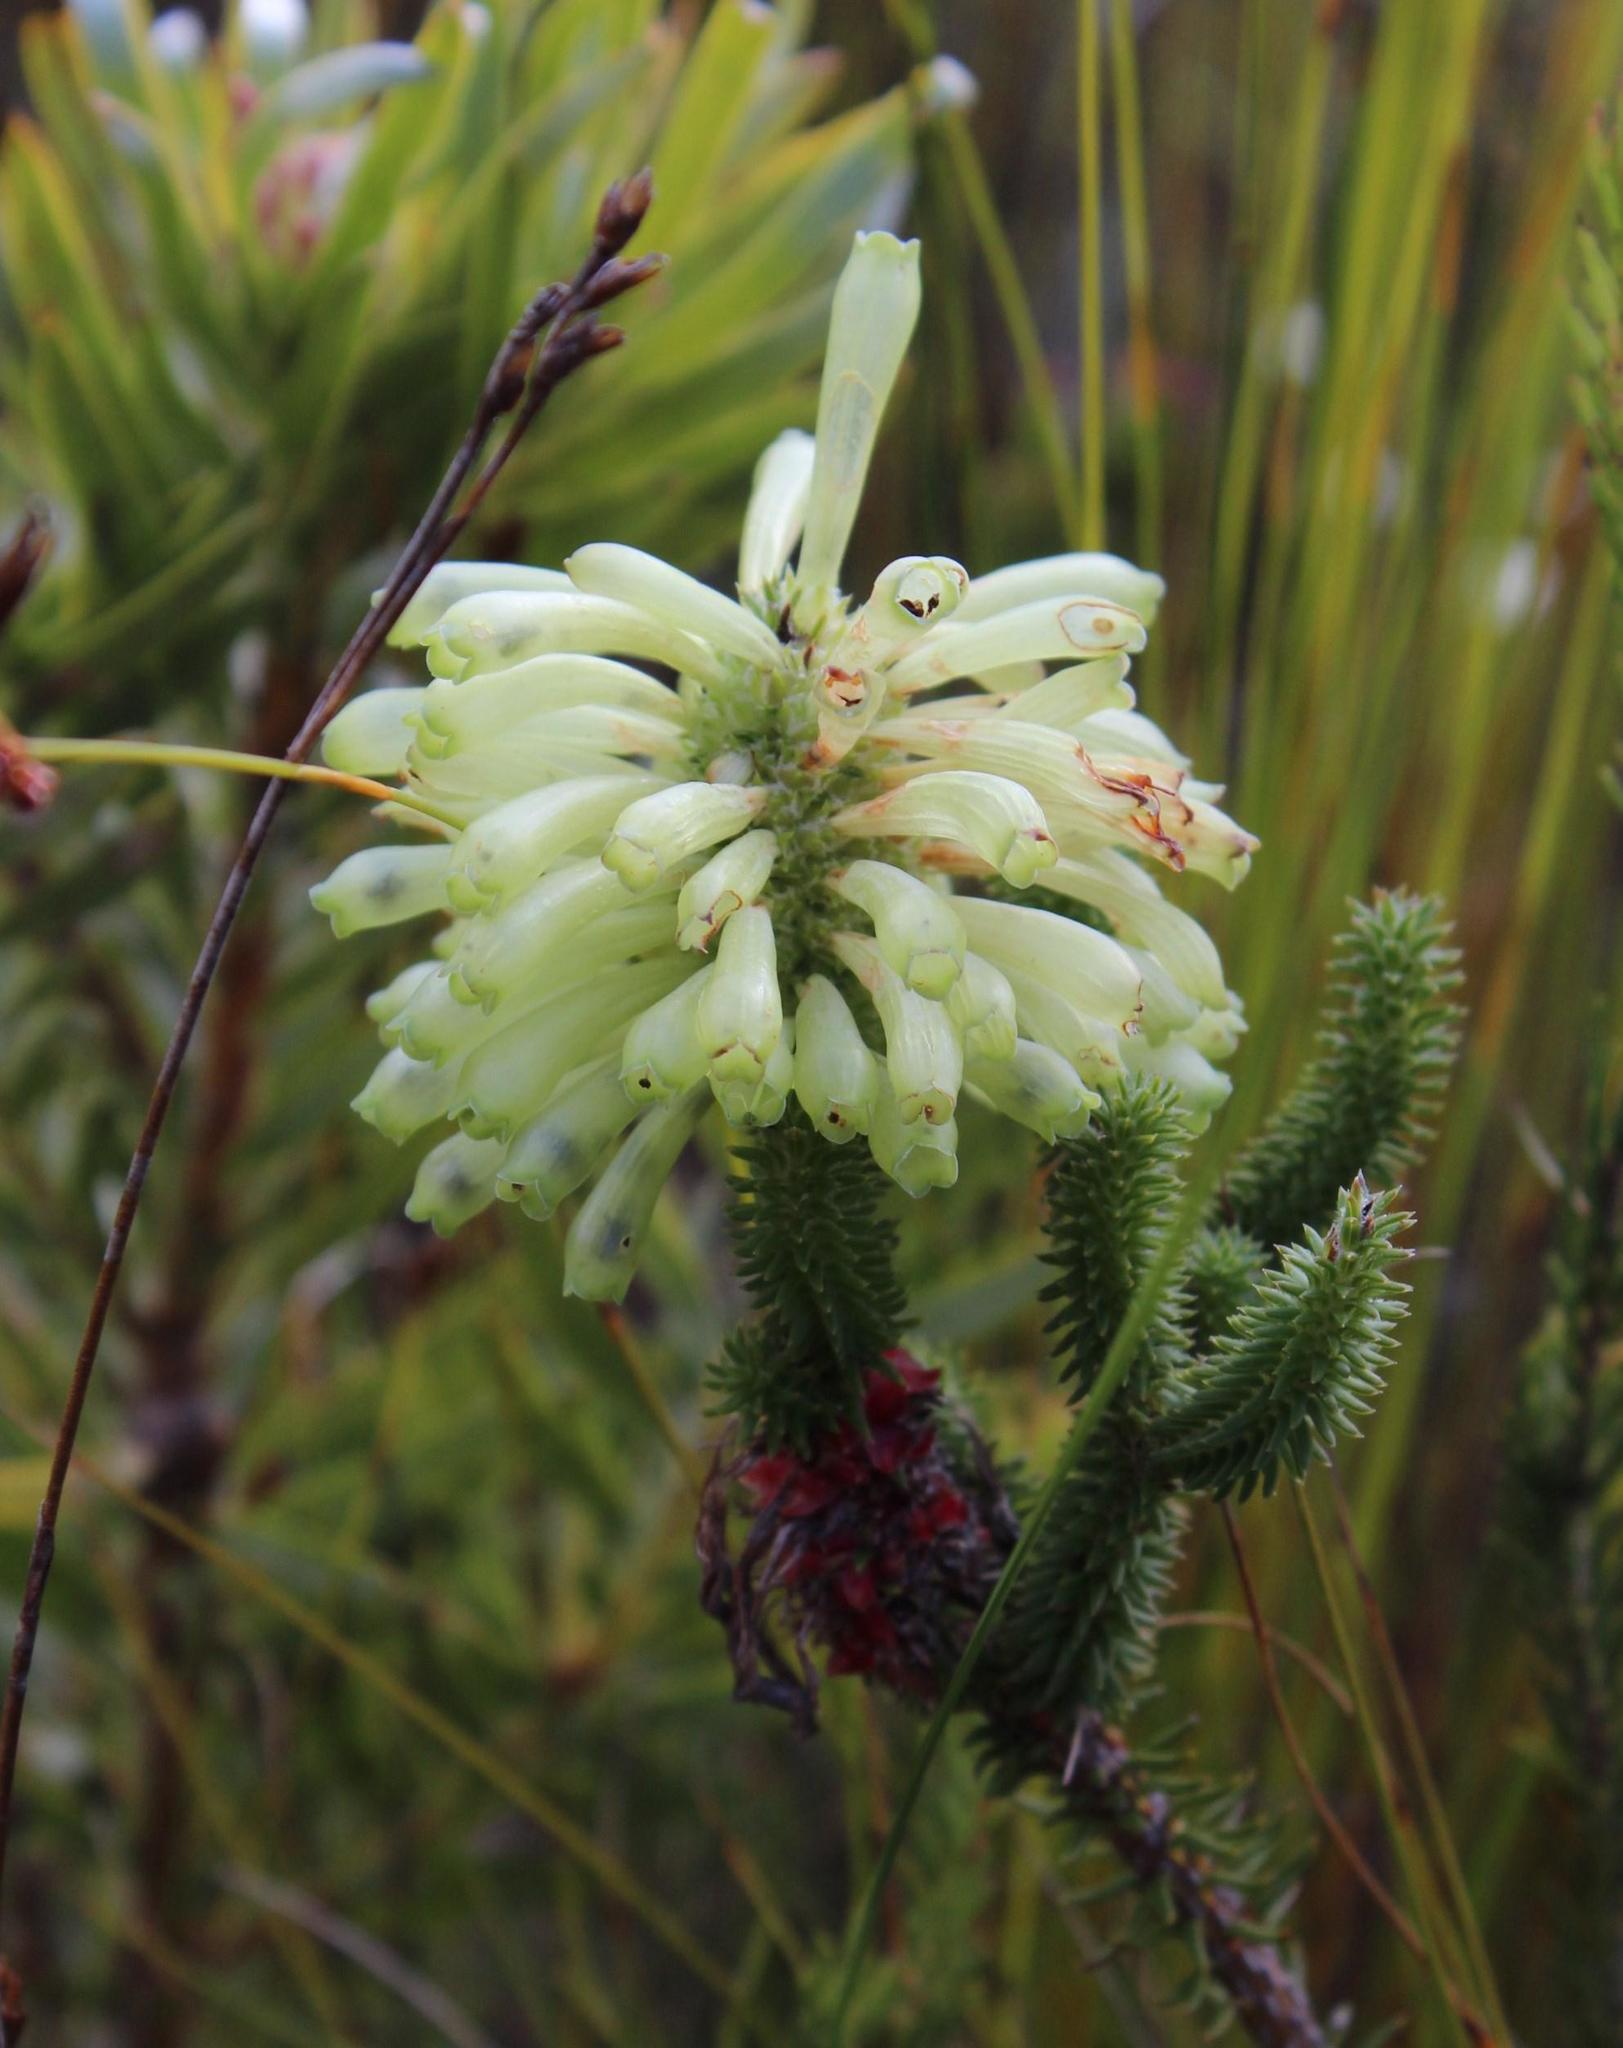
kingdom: Plantae
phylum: Tracheophyta
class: Magnoliopsida
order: Ericales
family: Ericaceae
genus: Erica
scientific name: Erica sessiliflora
